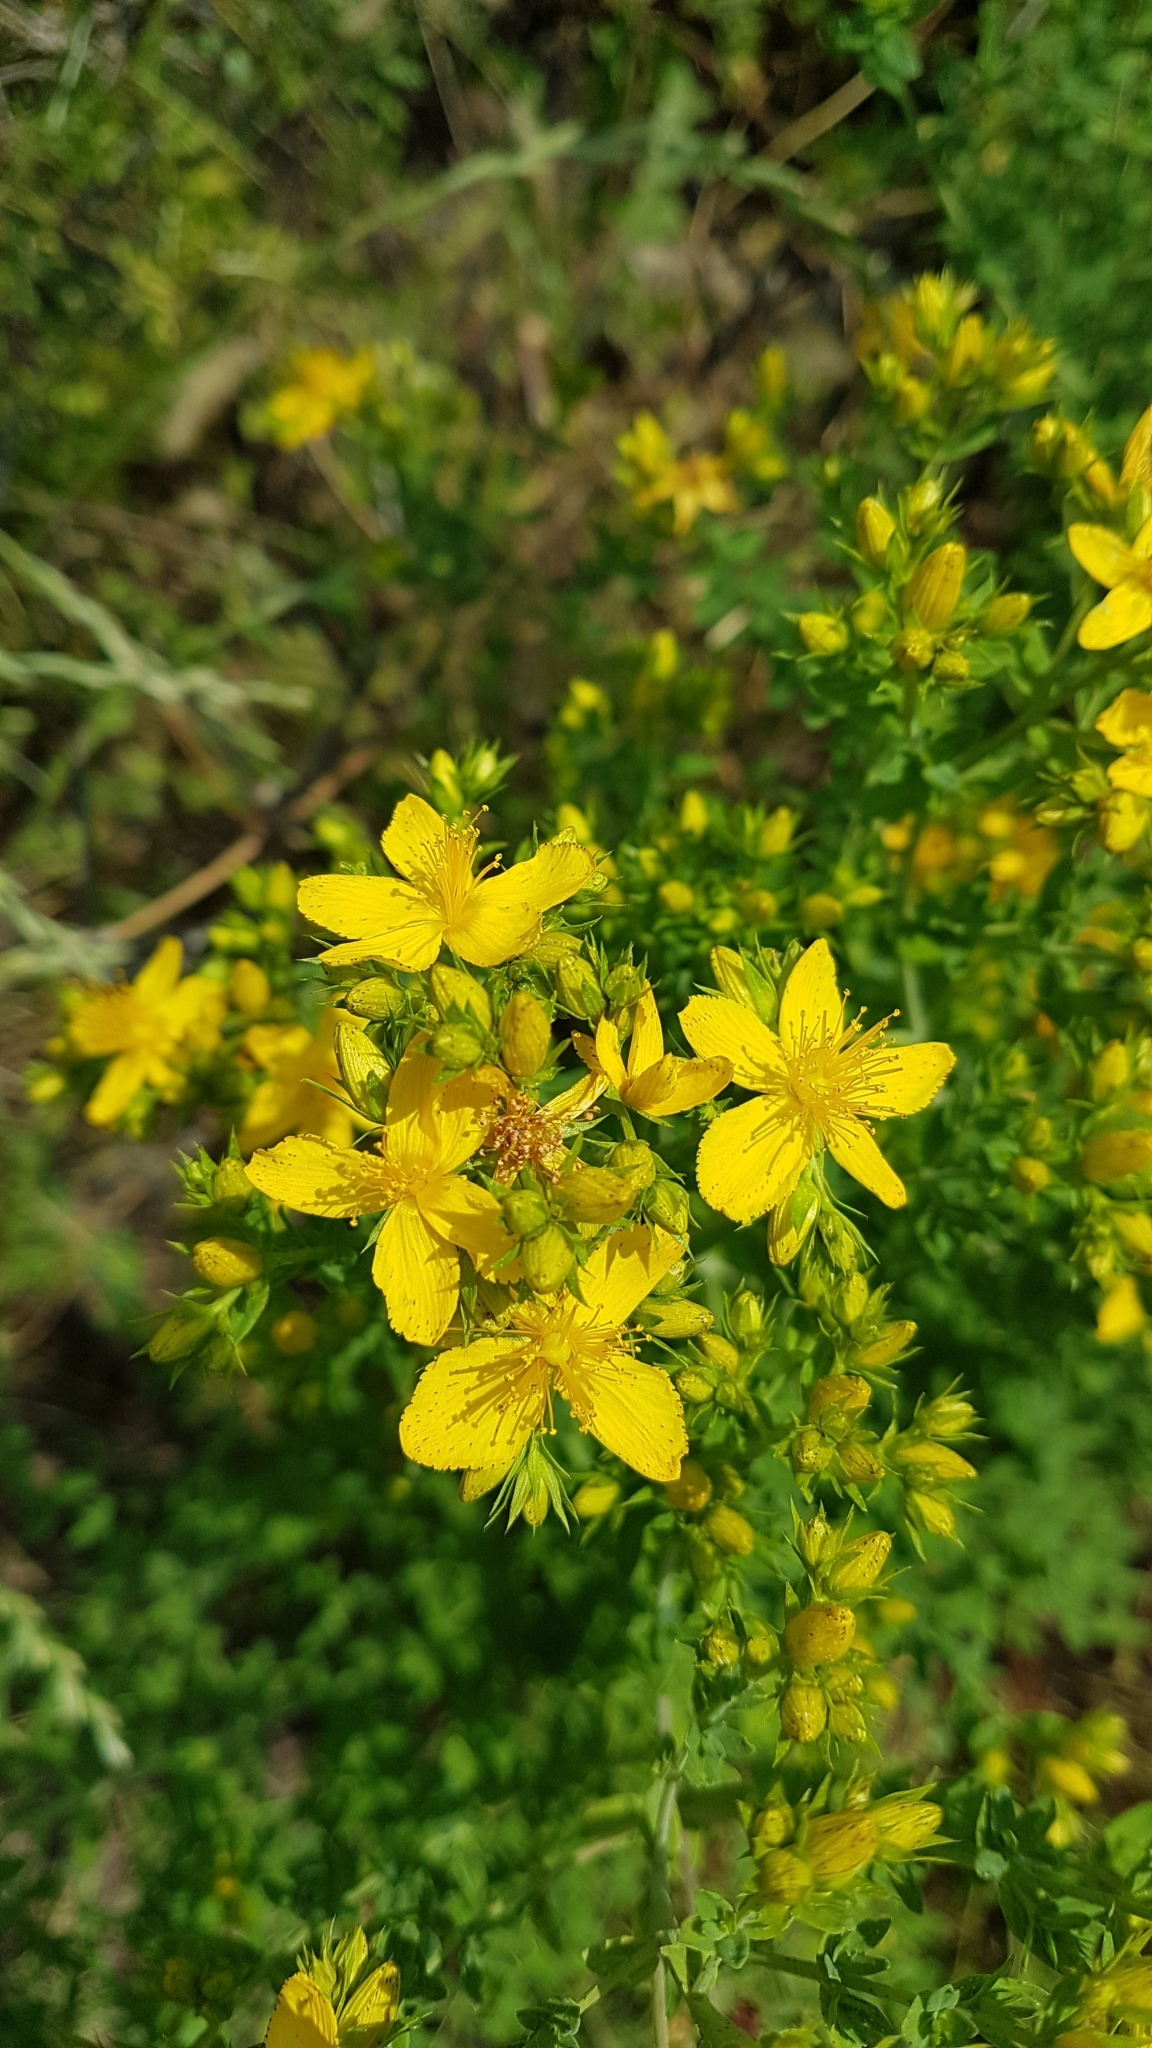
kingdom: Plantae
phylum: Tracheophyta
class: Magnoliopsida
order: Malpighiales
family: Hypericaceae
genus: Hypericum
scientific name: Hypericum perforatum
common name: Common st. johnswort
